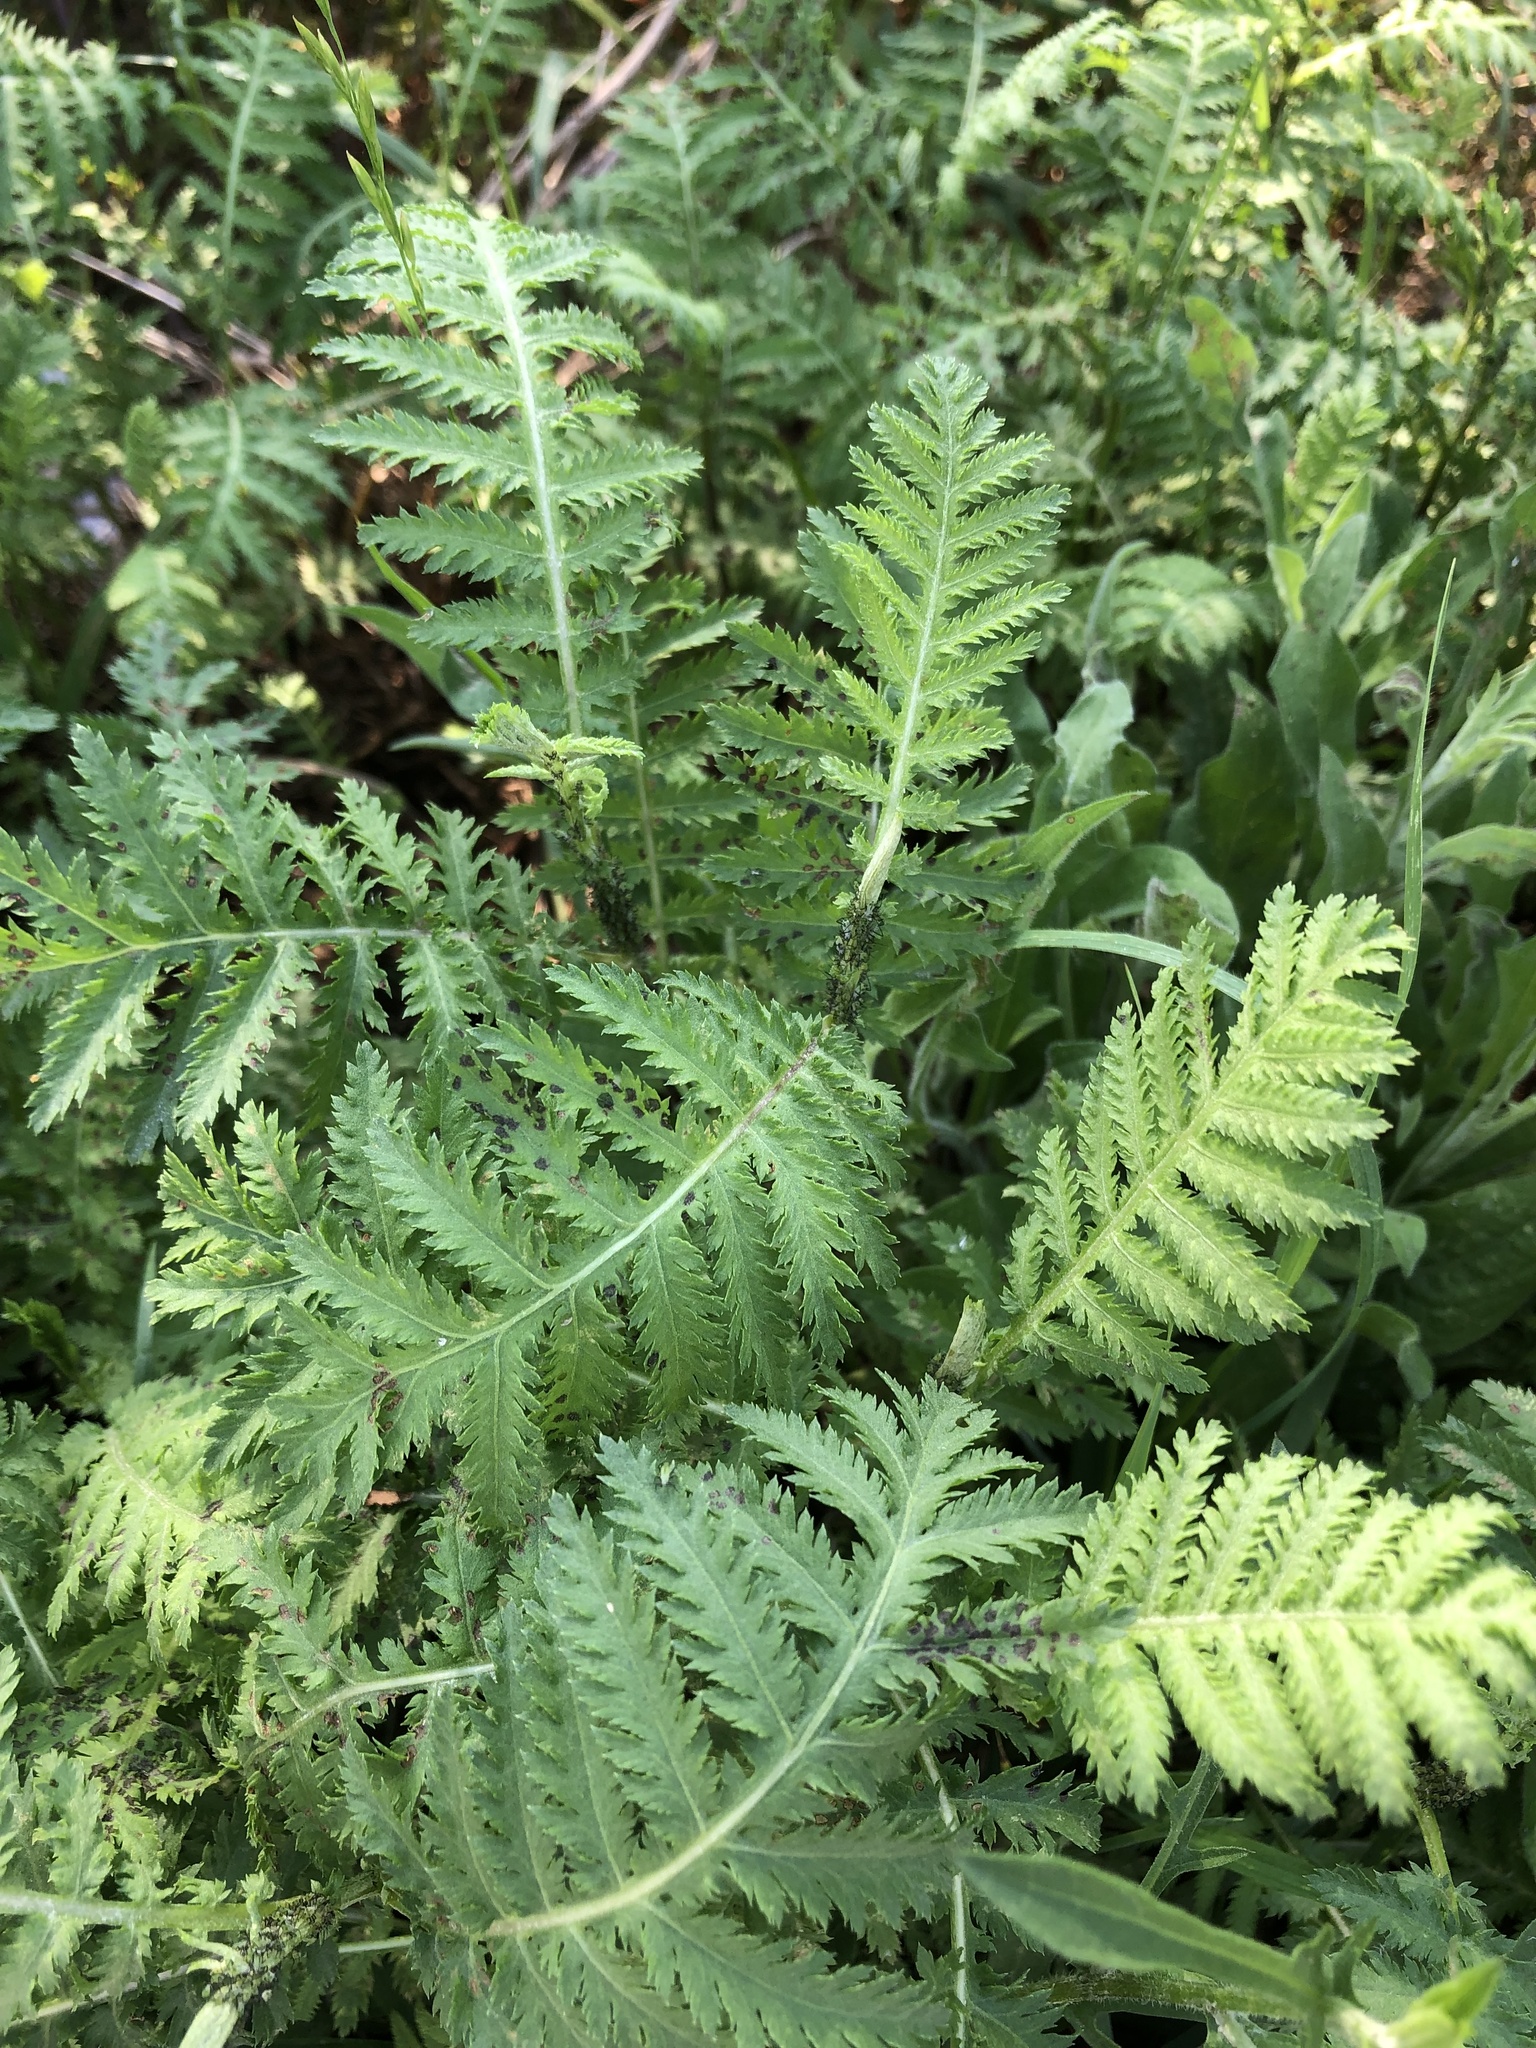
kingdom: Plantae
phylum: Tracheophyta
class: Magnoliopsida
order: Asterales
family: Asteraceae
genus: Tanacetum
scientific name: Tanacetum vulgare
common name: Common tansy
